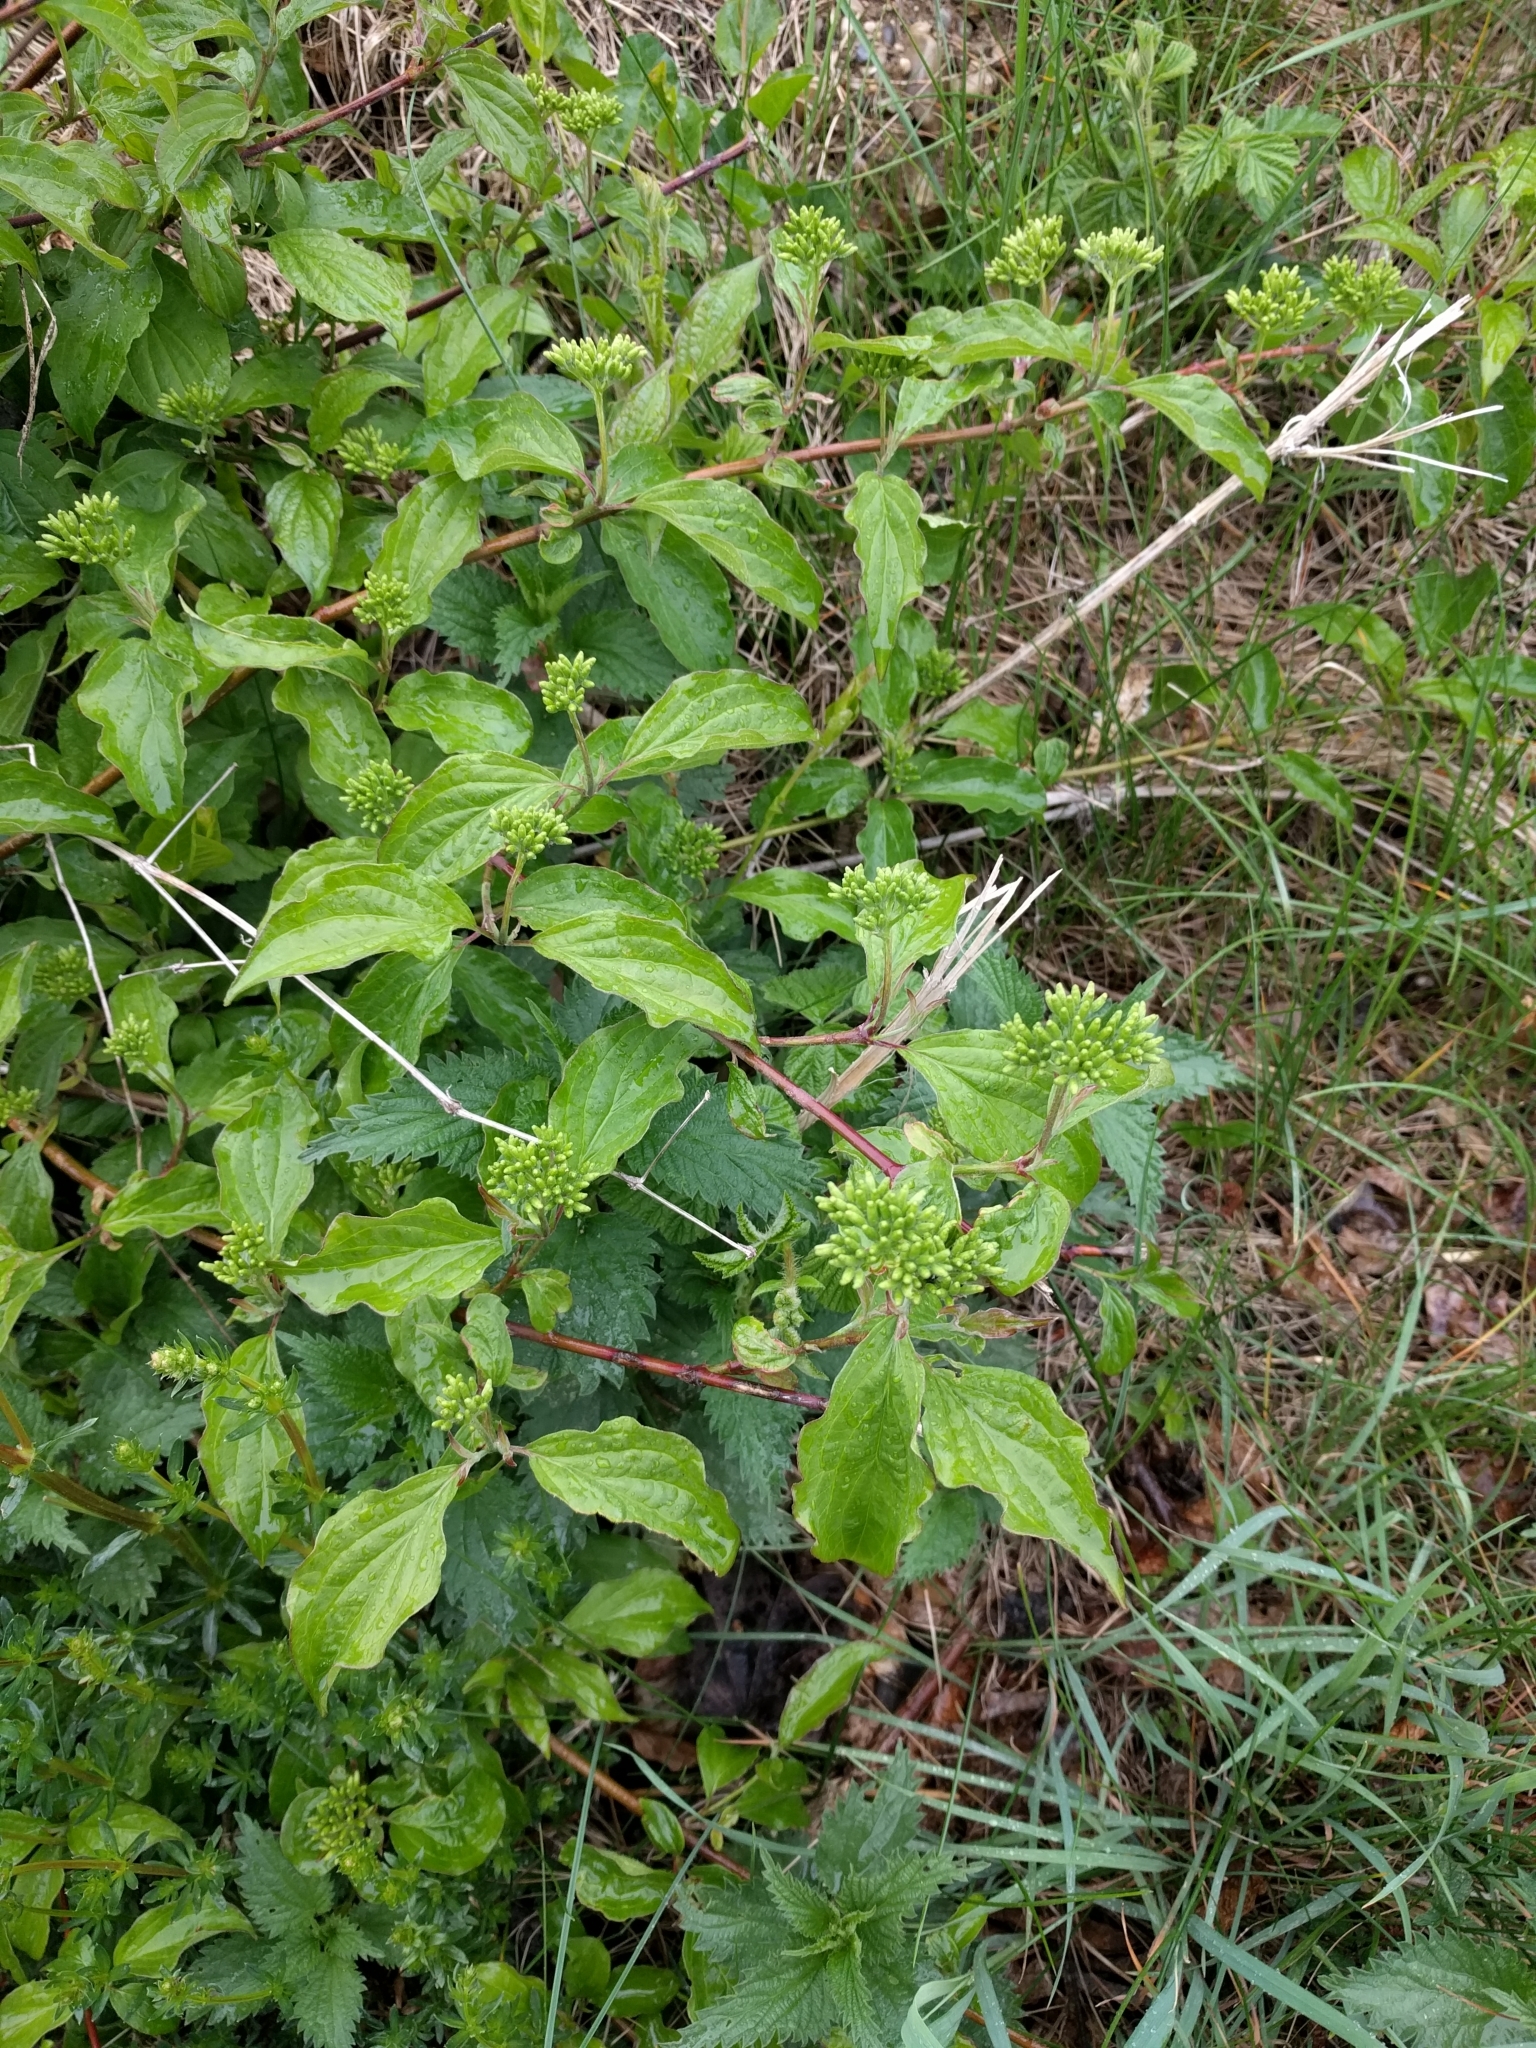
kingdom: Plantae
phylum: Tracheophyta
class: Magnoliopsida
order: Cornales
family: Cornaceae
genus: Cornus
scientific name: Cornus sanguinea
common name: Dogwood
